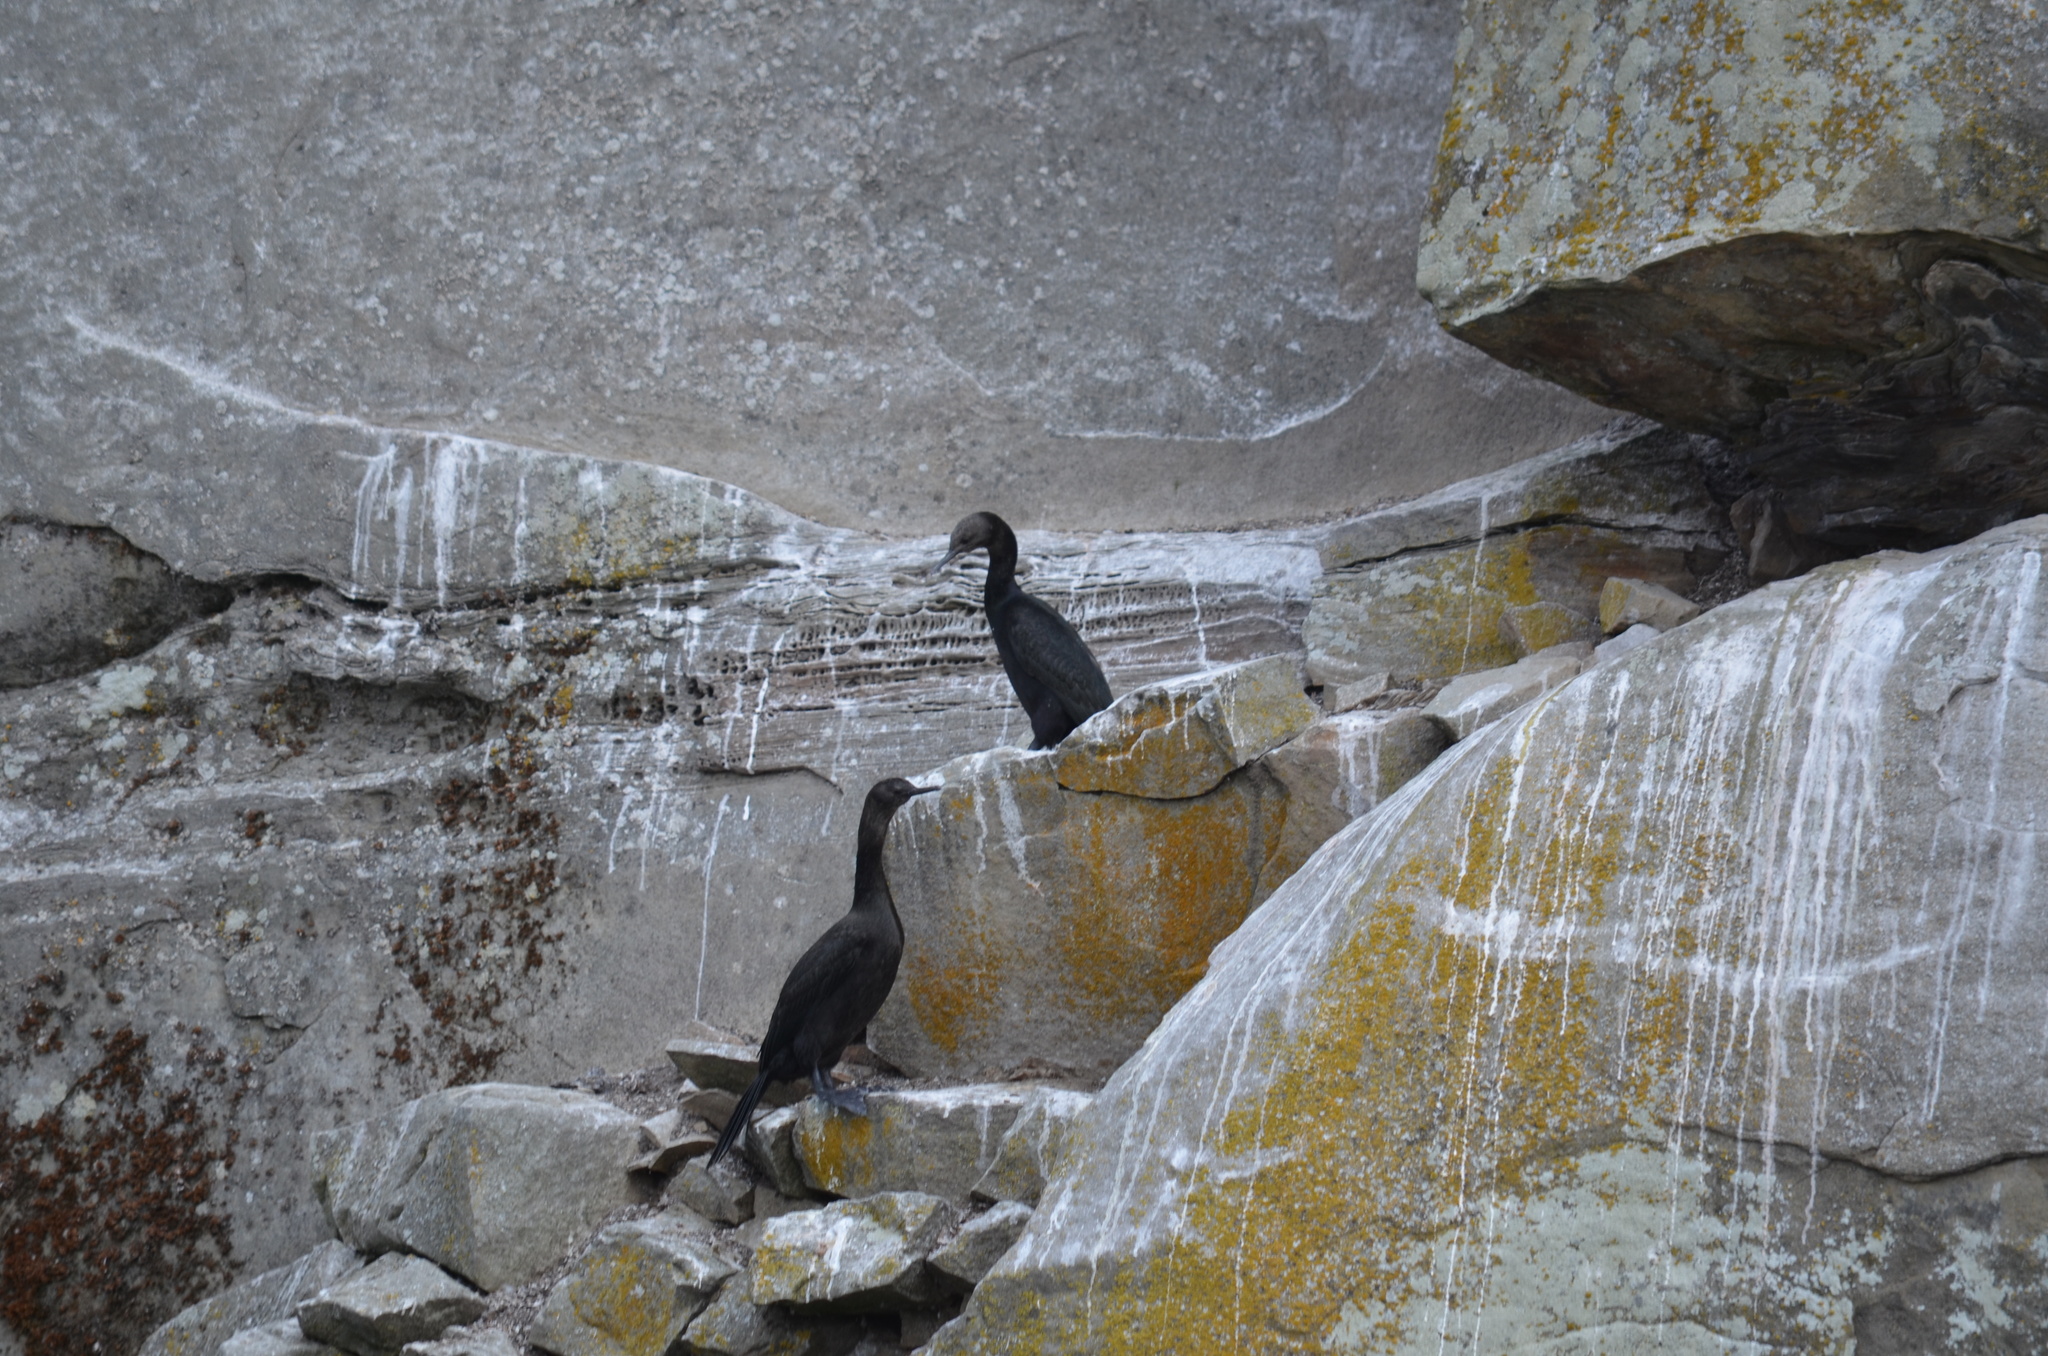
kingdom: Animalia
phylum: Chordata
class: Aves
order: Suliformes
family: Phalacrocoracidae
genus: Phalacrocorax
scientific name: Phalacrocorax pelagicus
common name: Pelagic cormorant
